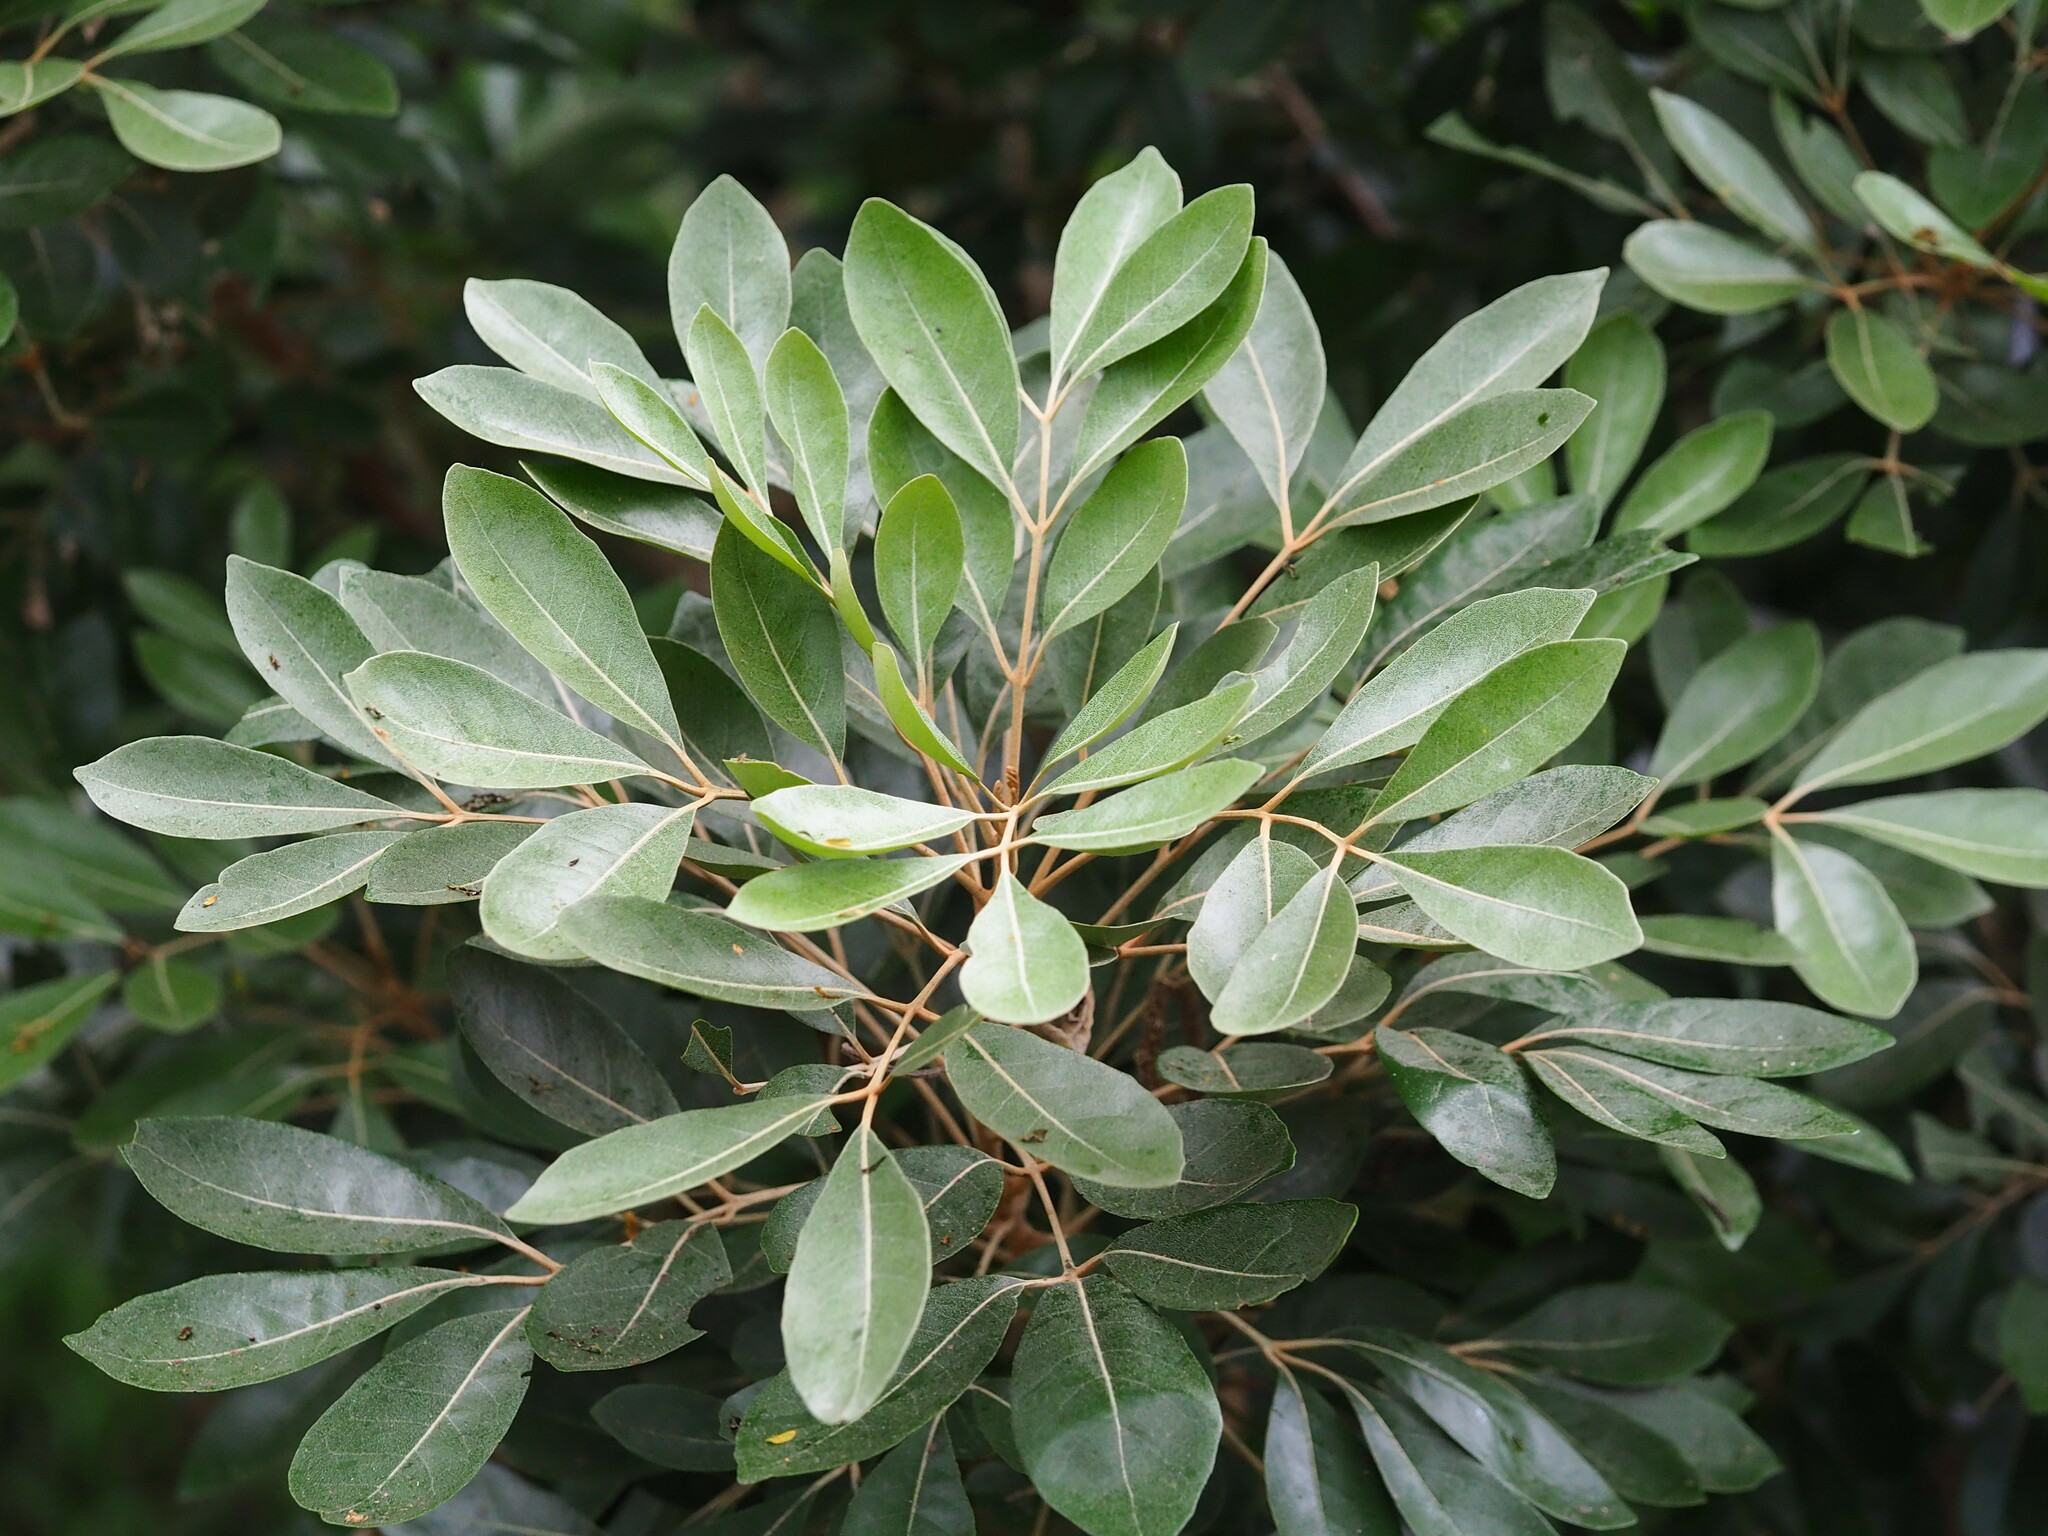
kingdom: Plantae
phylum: Tracheophyta
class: Magnoliopsida
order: Sapindales
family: Meliaceae
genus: Aglaia
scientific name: Aglaia elaeagnoidea
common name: Droopyleaf
